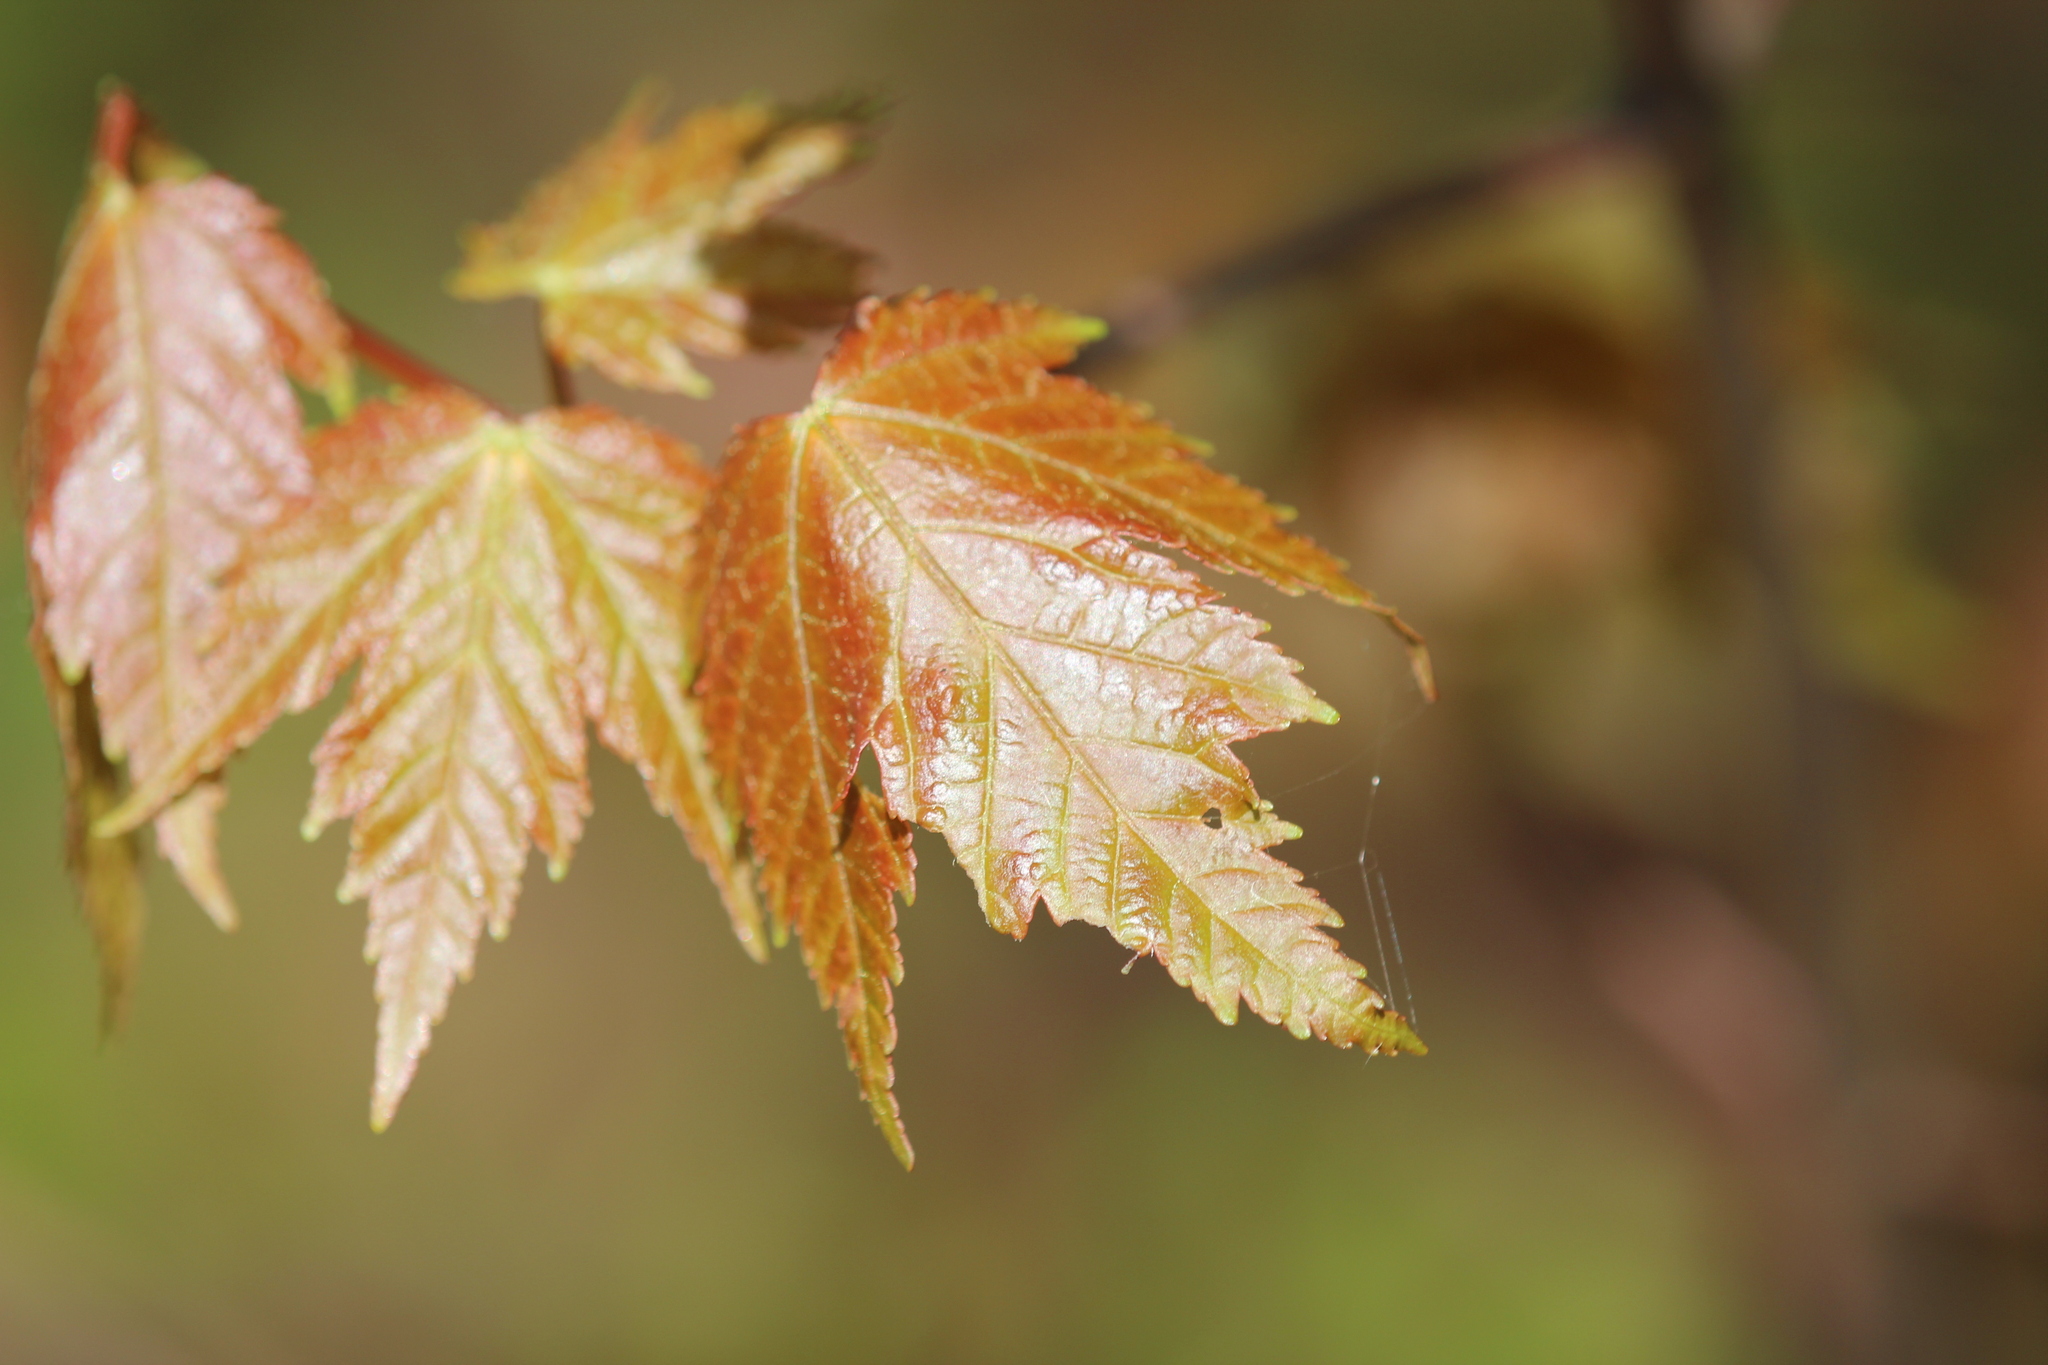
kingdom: Plantae
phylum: Tracheophyta
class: Magnoliopsida
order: Sapindales
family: Sapindaceae
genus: Acer
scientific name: Acer rubrum
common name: Red maple
